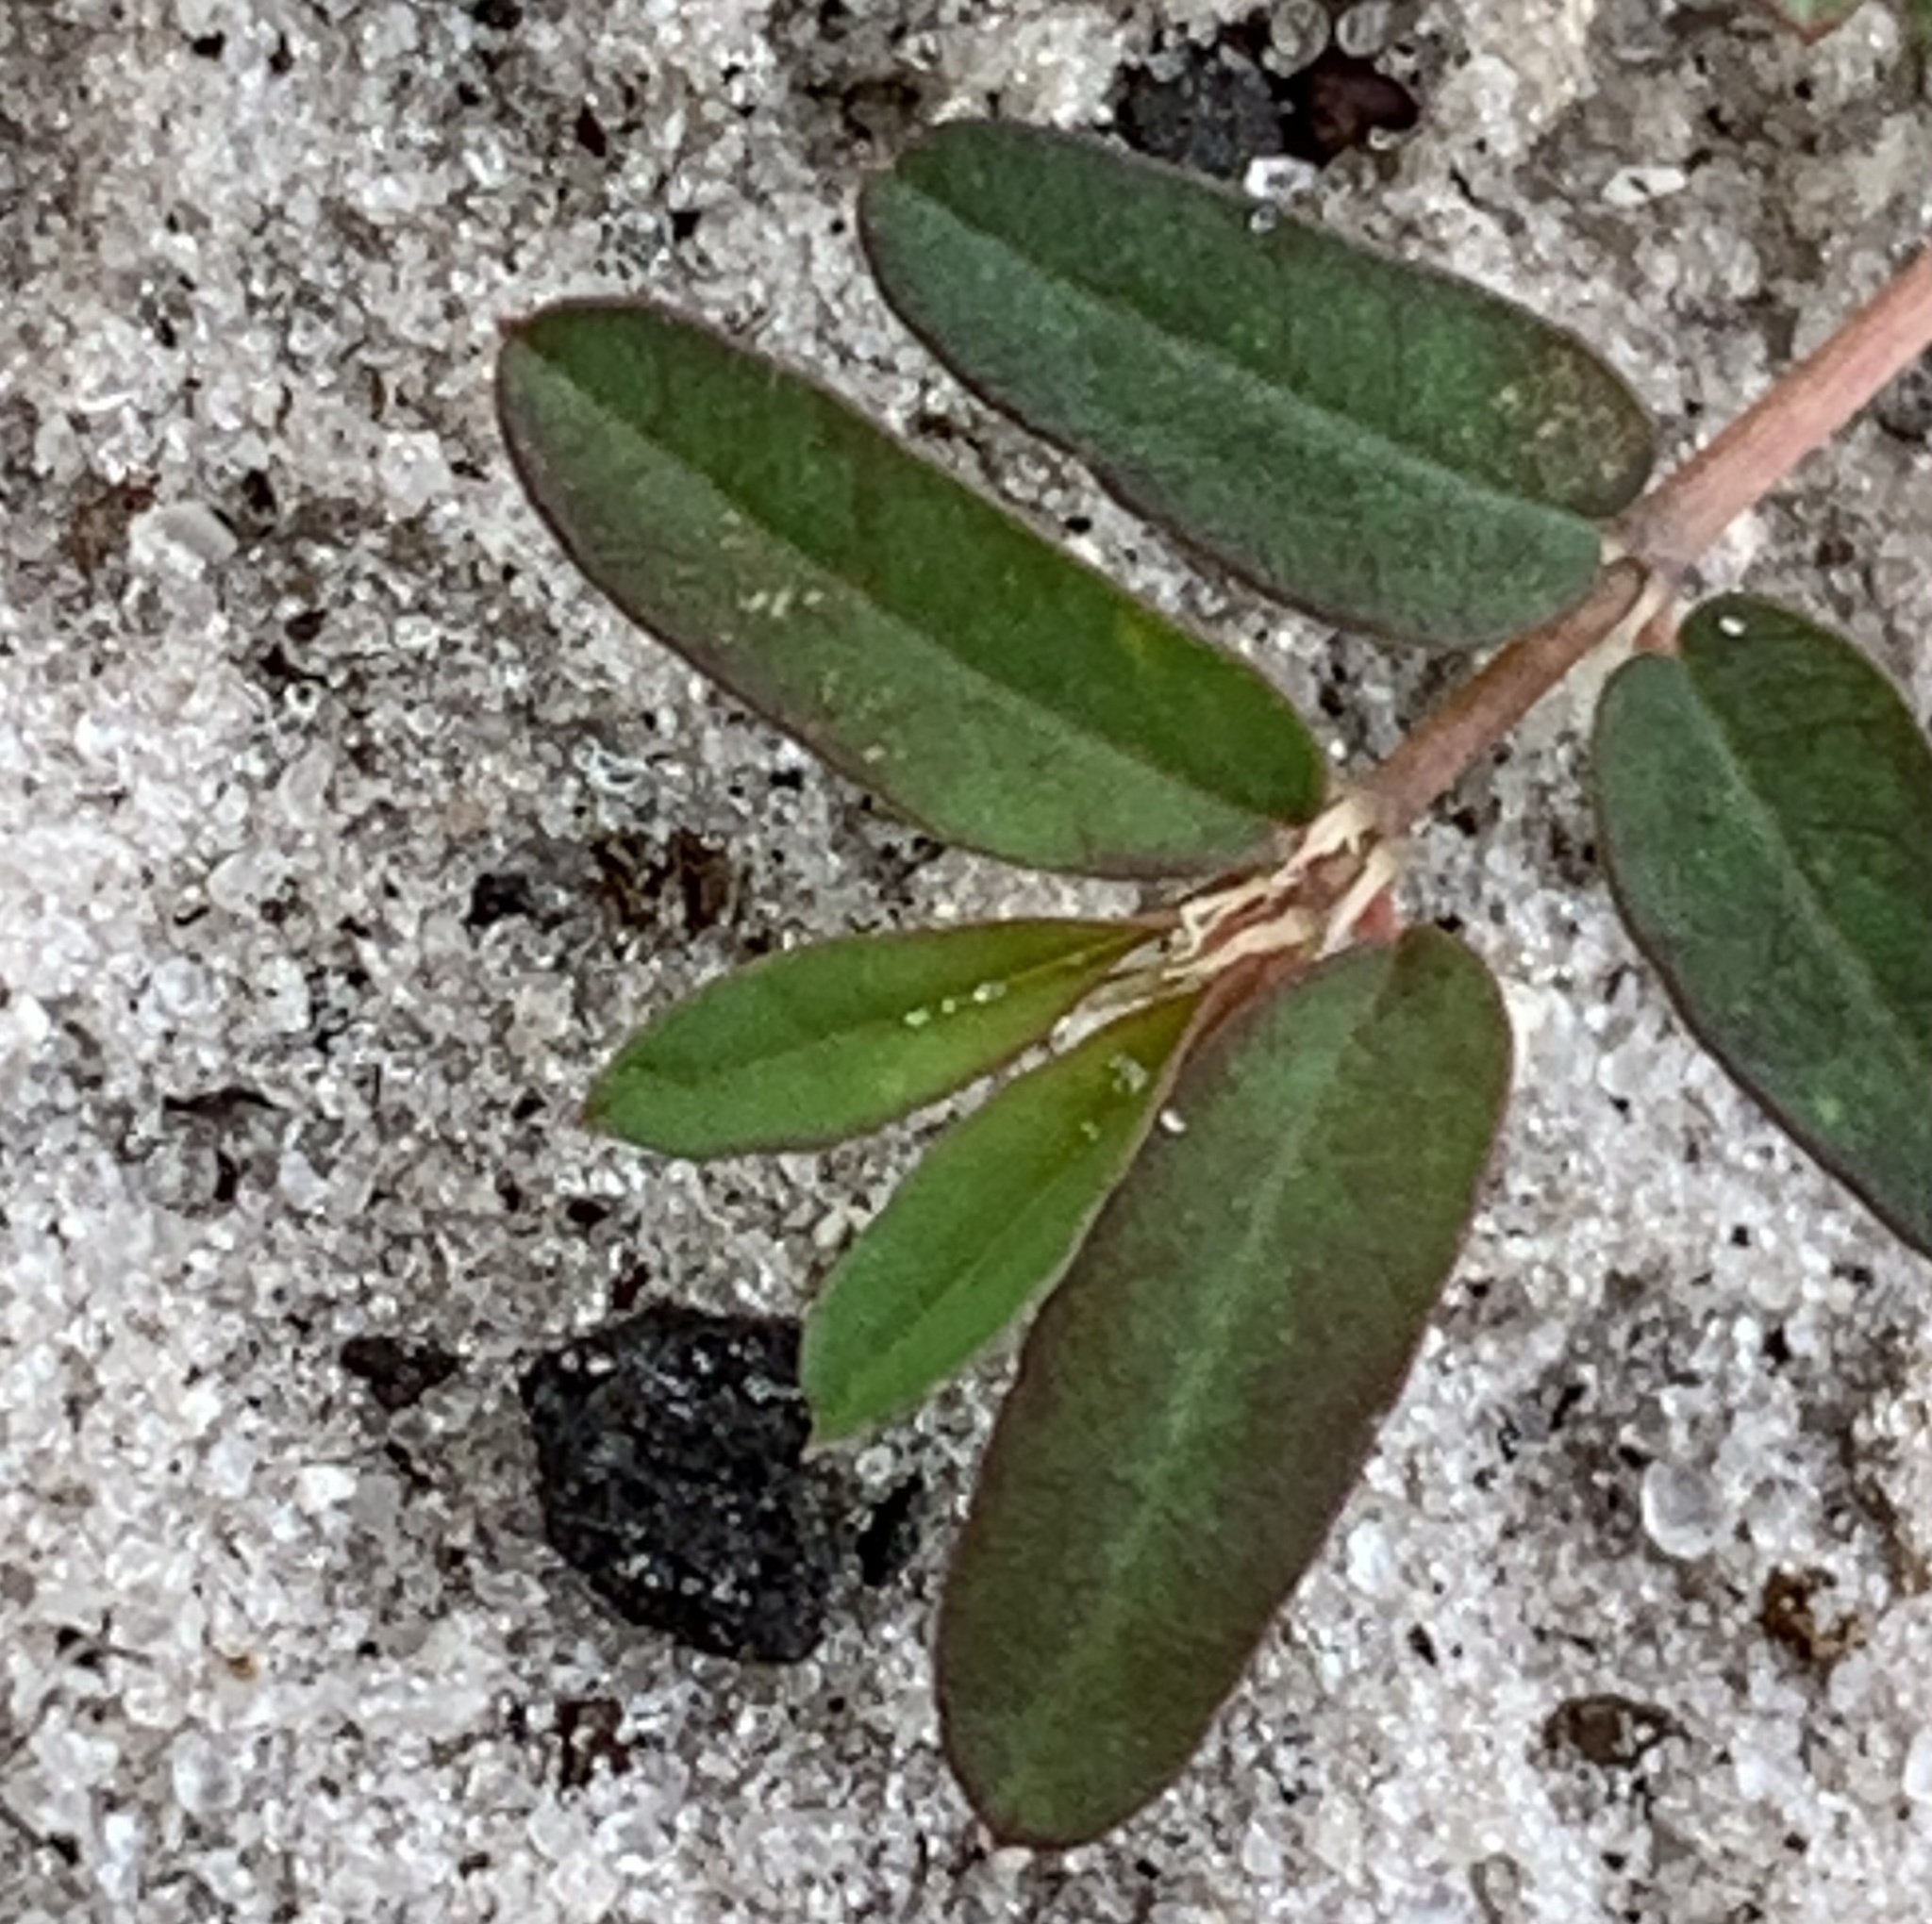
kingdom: Plantae
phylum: Tracheophyta
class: Magnoliopsida
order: Malpighiales
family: Euphorbiaceae
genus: Euphorbia
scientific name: Euphorbia cumulicola
